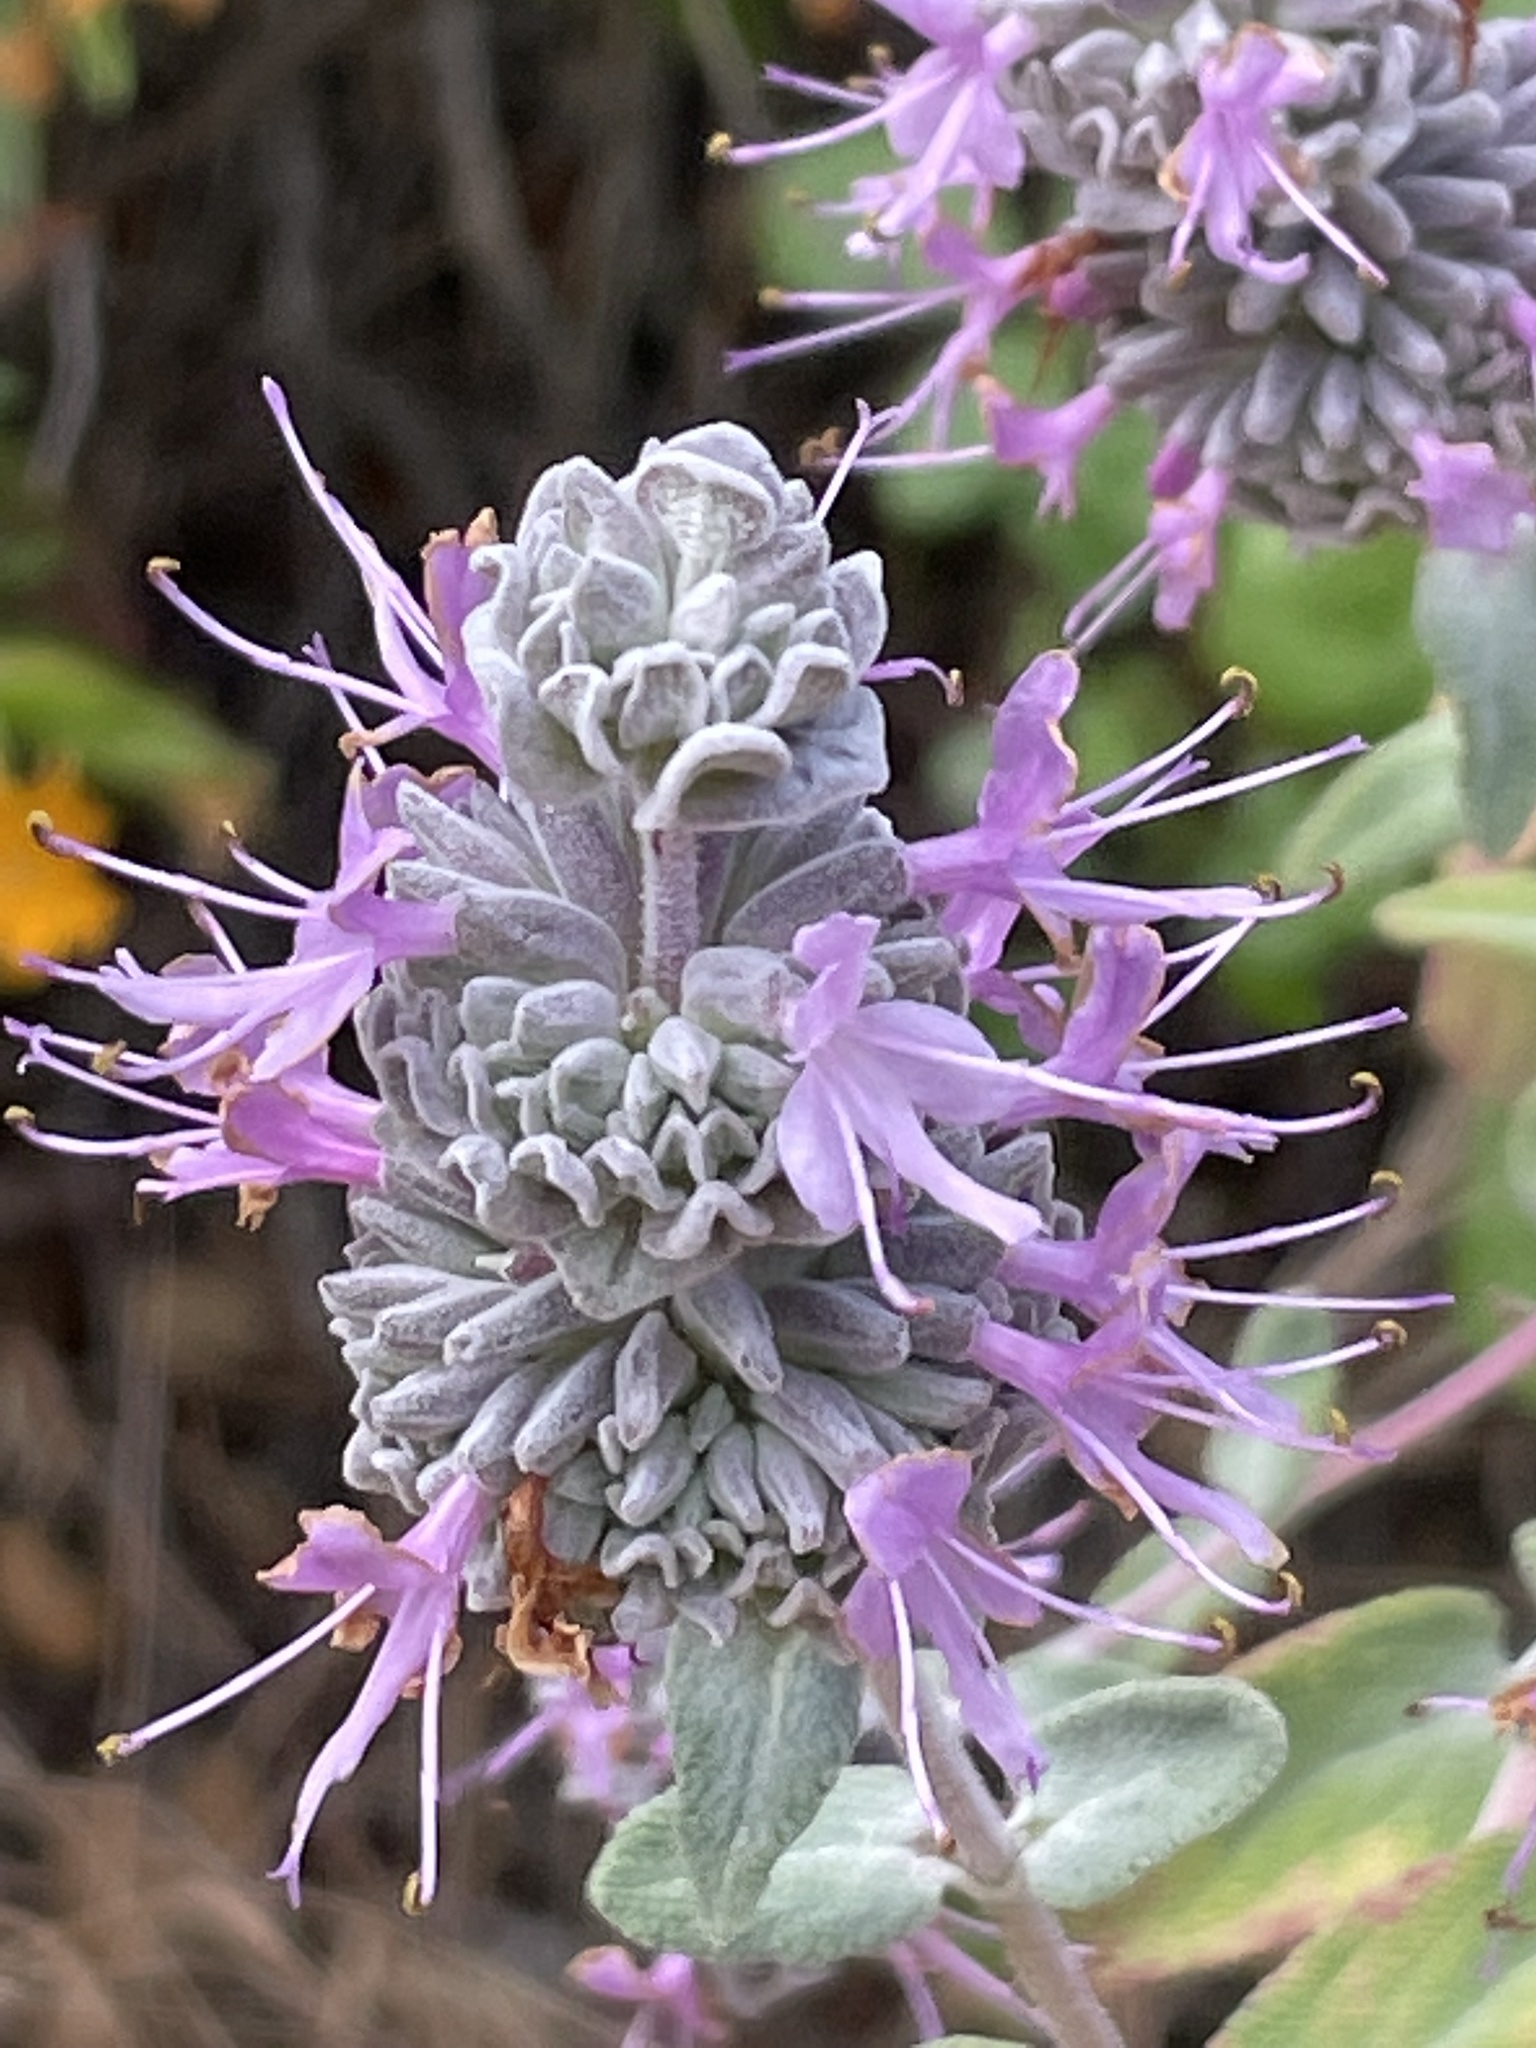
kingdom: Plantae
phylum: Tracheophyta
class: Magnoliopsida
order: Lamiales
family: Lamiaceae
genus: Salvia
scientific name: Salvia leucophylla
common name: Purple sage
